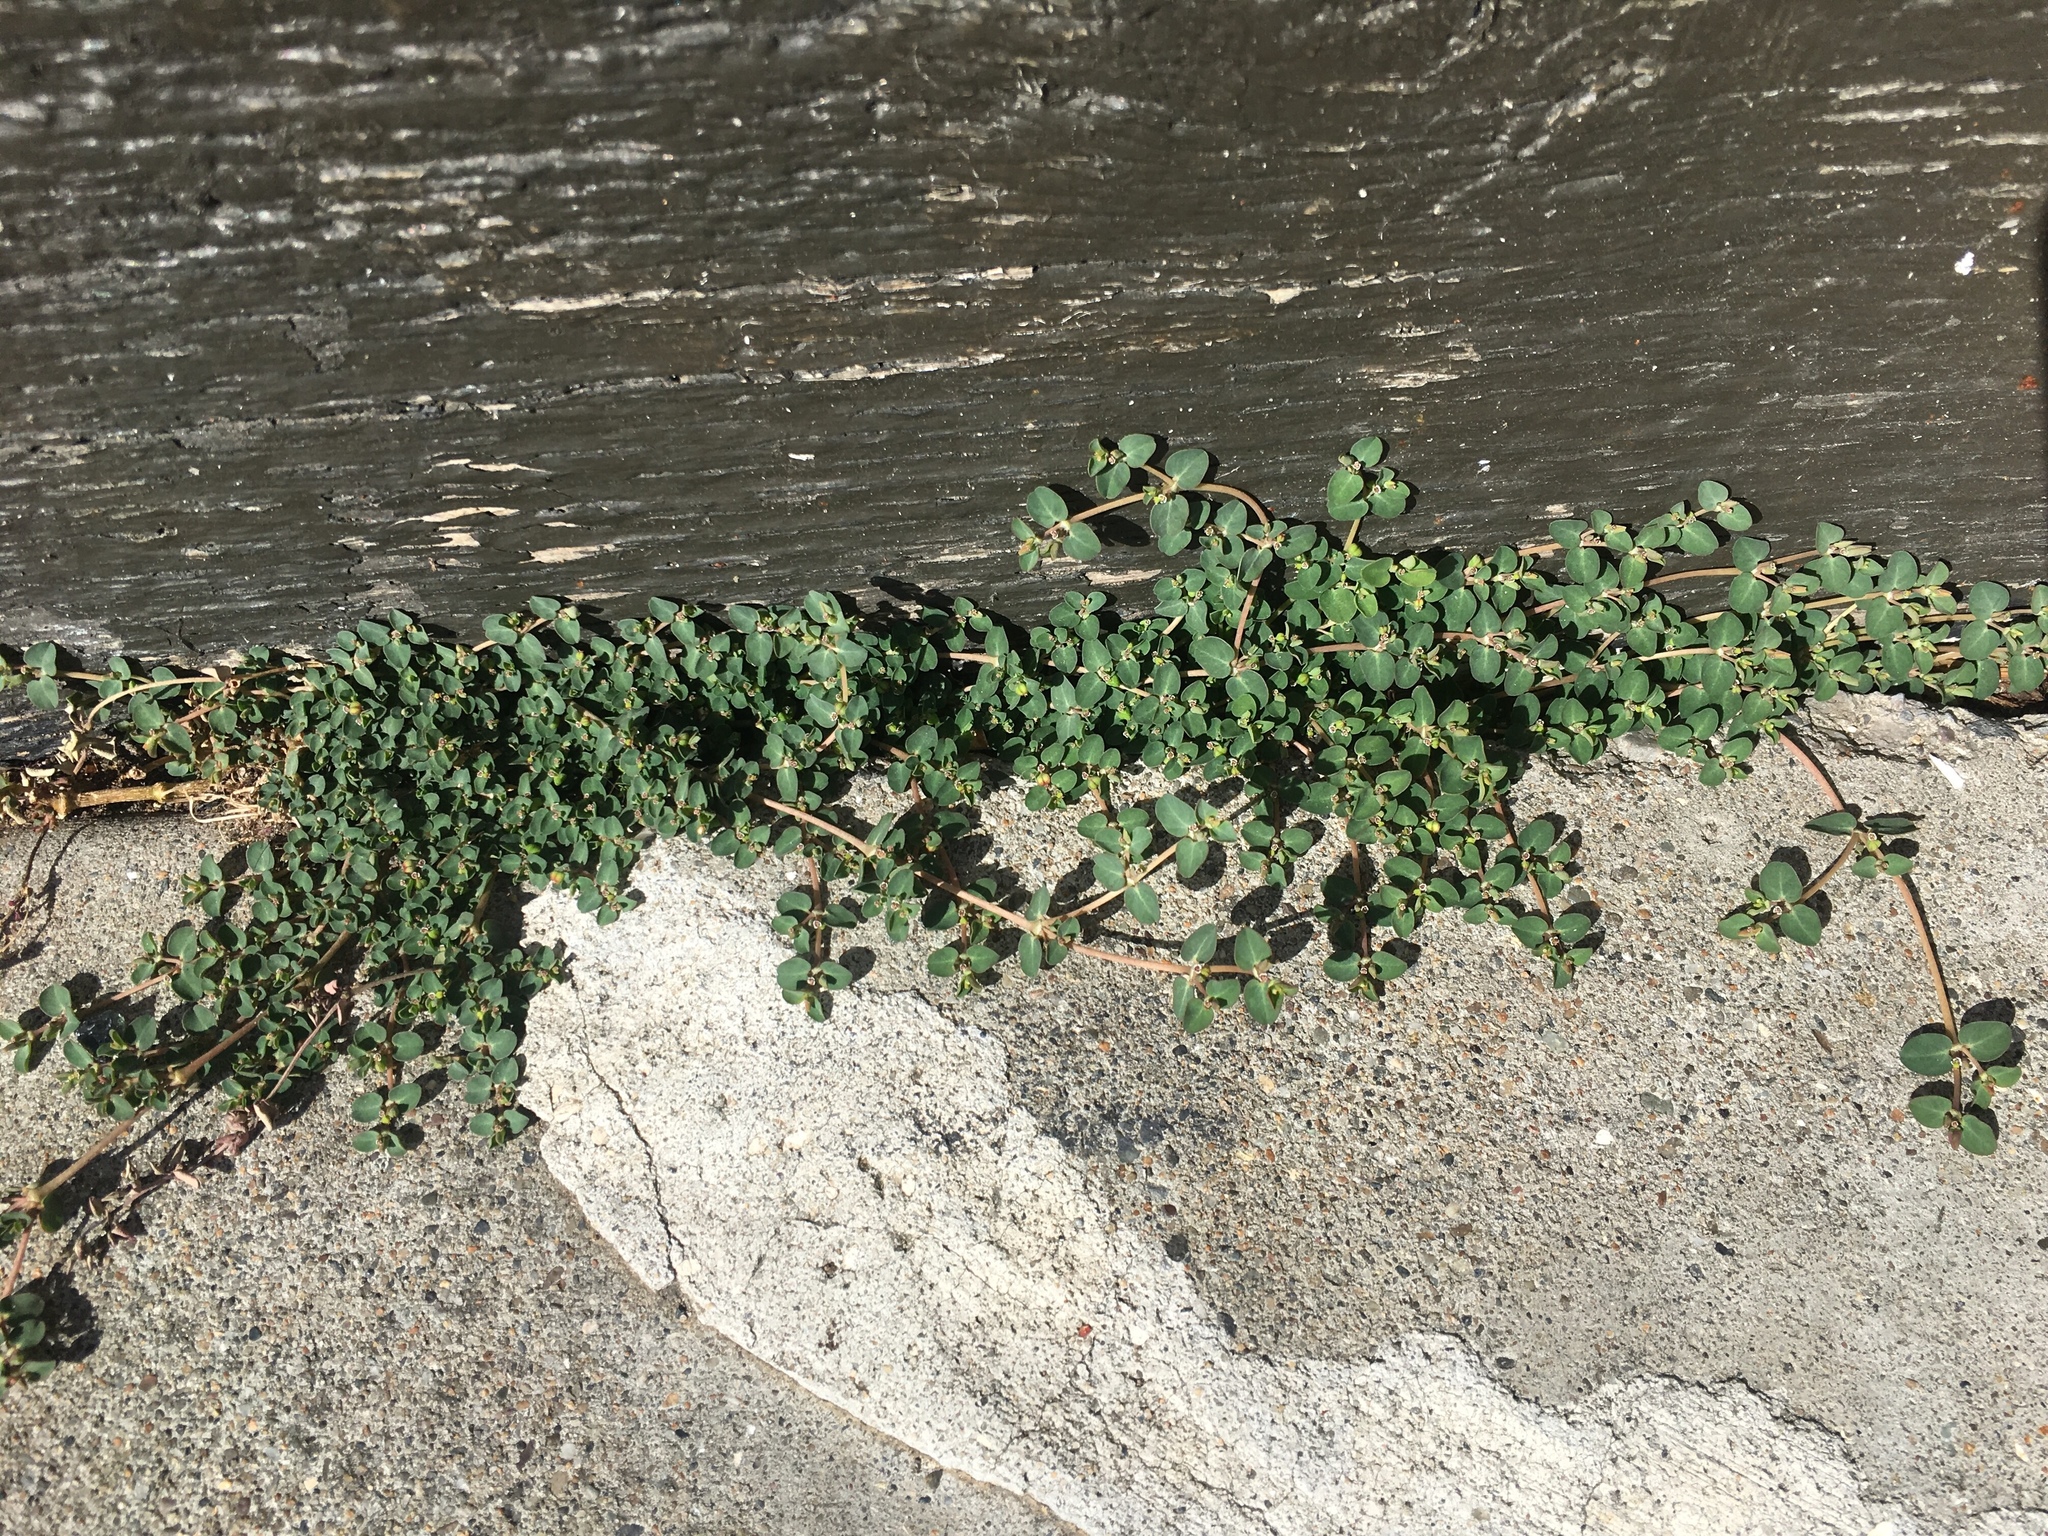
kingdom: Plantae
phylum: Tracheophyta
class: Magnoliopsida
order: Malpighiales
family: Euphorbiaceae
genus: Euphorbia
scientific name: Euphorbia serpens
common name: Matted sandmat
